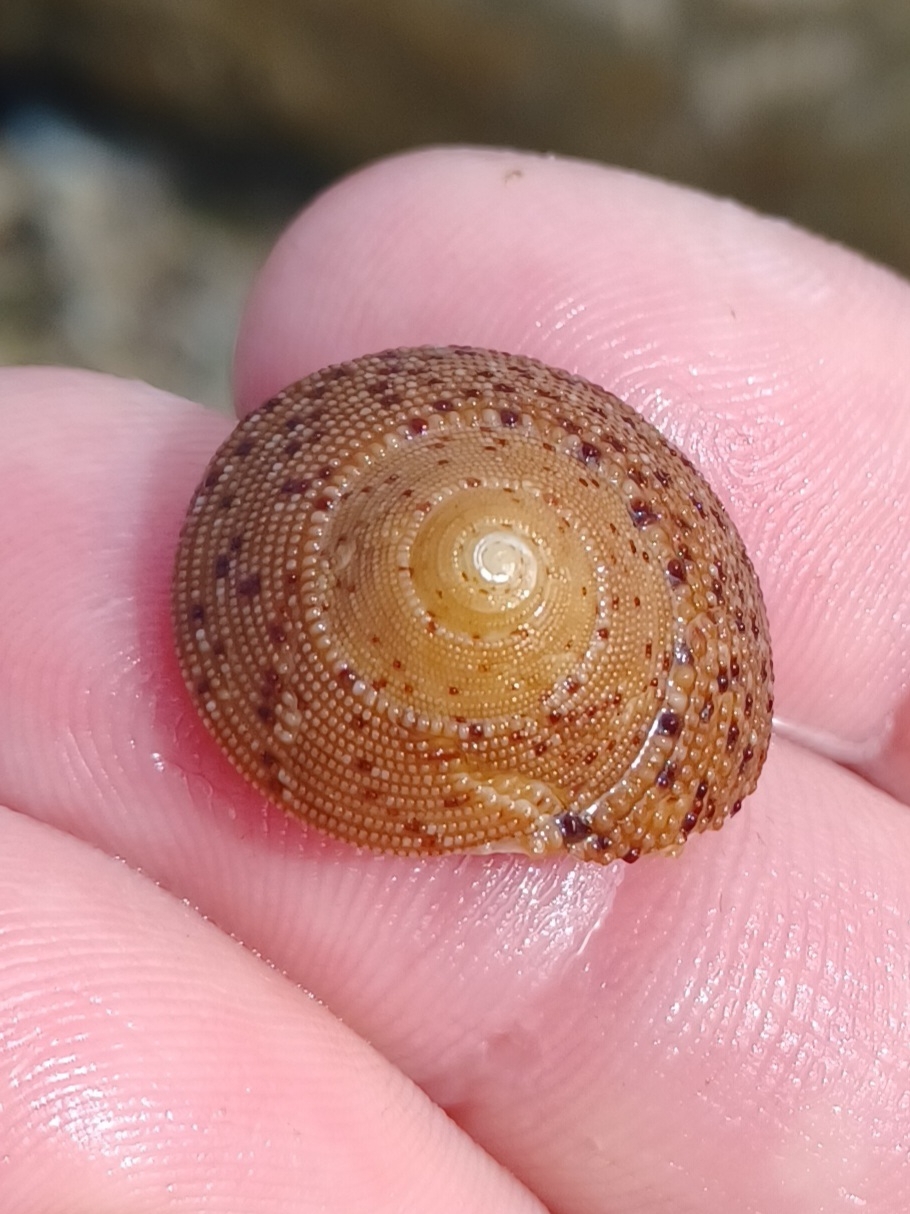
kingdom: Animalia
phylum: Mollusca
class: Gastropoda
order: Trochida
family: Trochidae
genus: Clanculus
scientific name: Clanculus undatus
